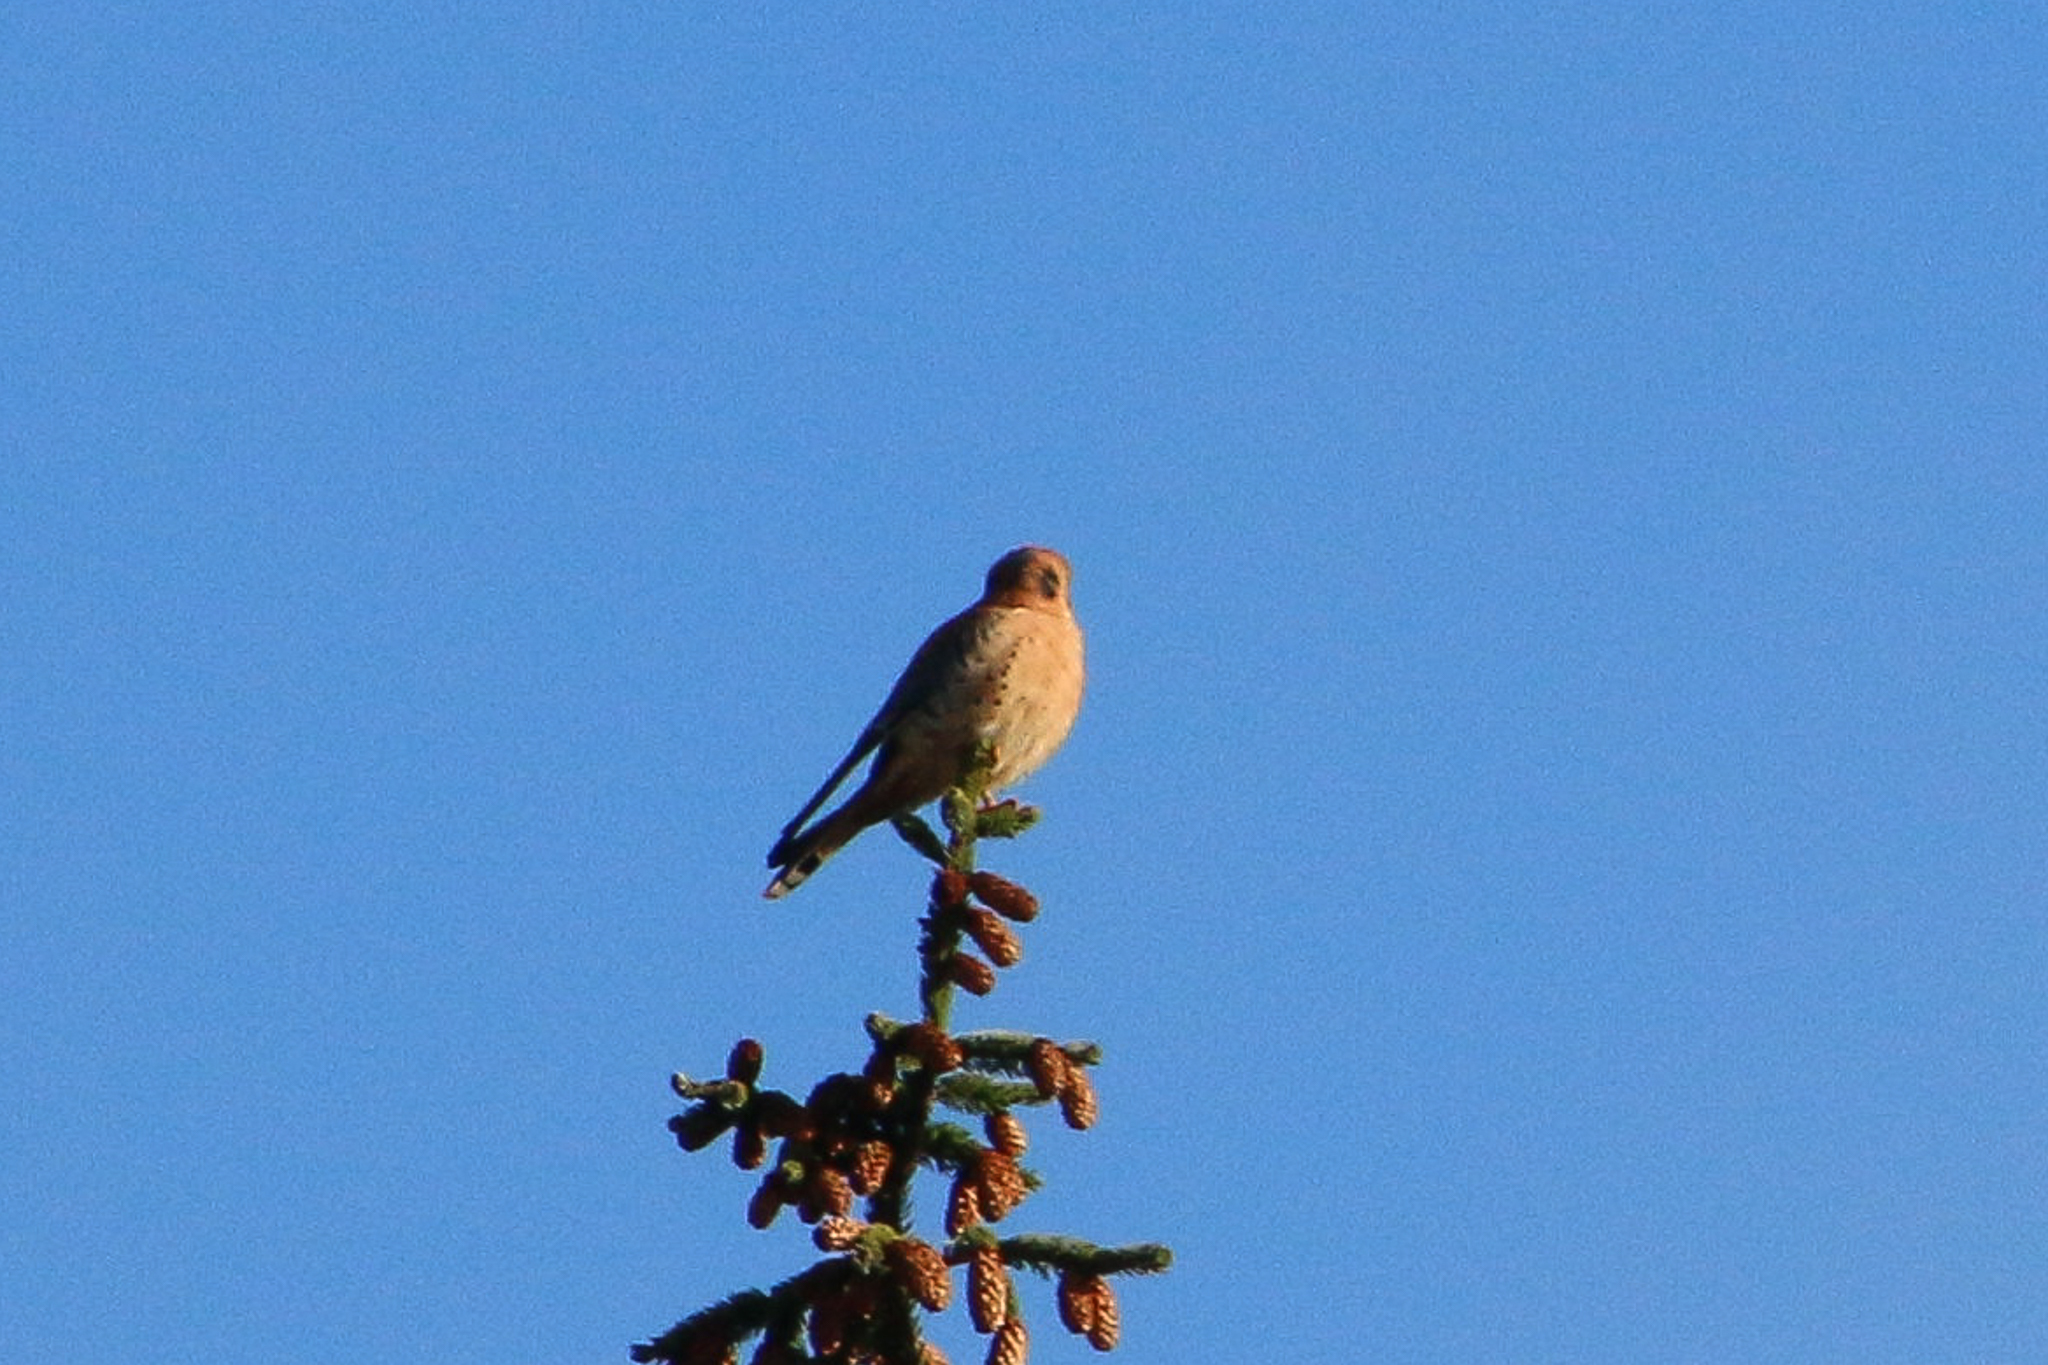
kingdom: Animalia
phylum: Chordata
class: Aves
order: Falconiformes
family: Falconidae
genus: Falco
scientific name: Falco sparverius
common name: American kestrel
